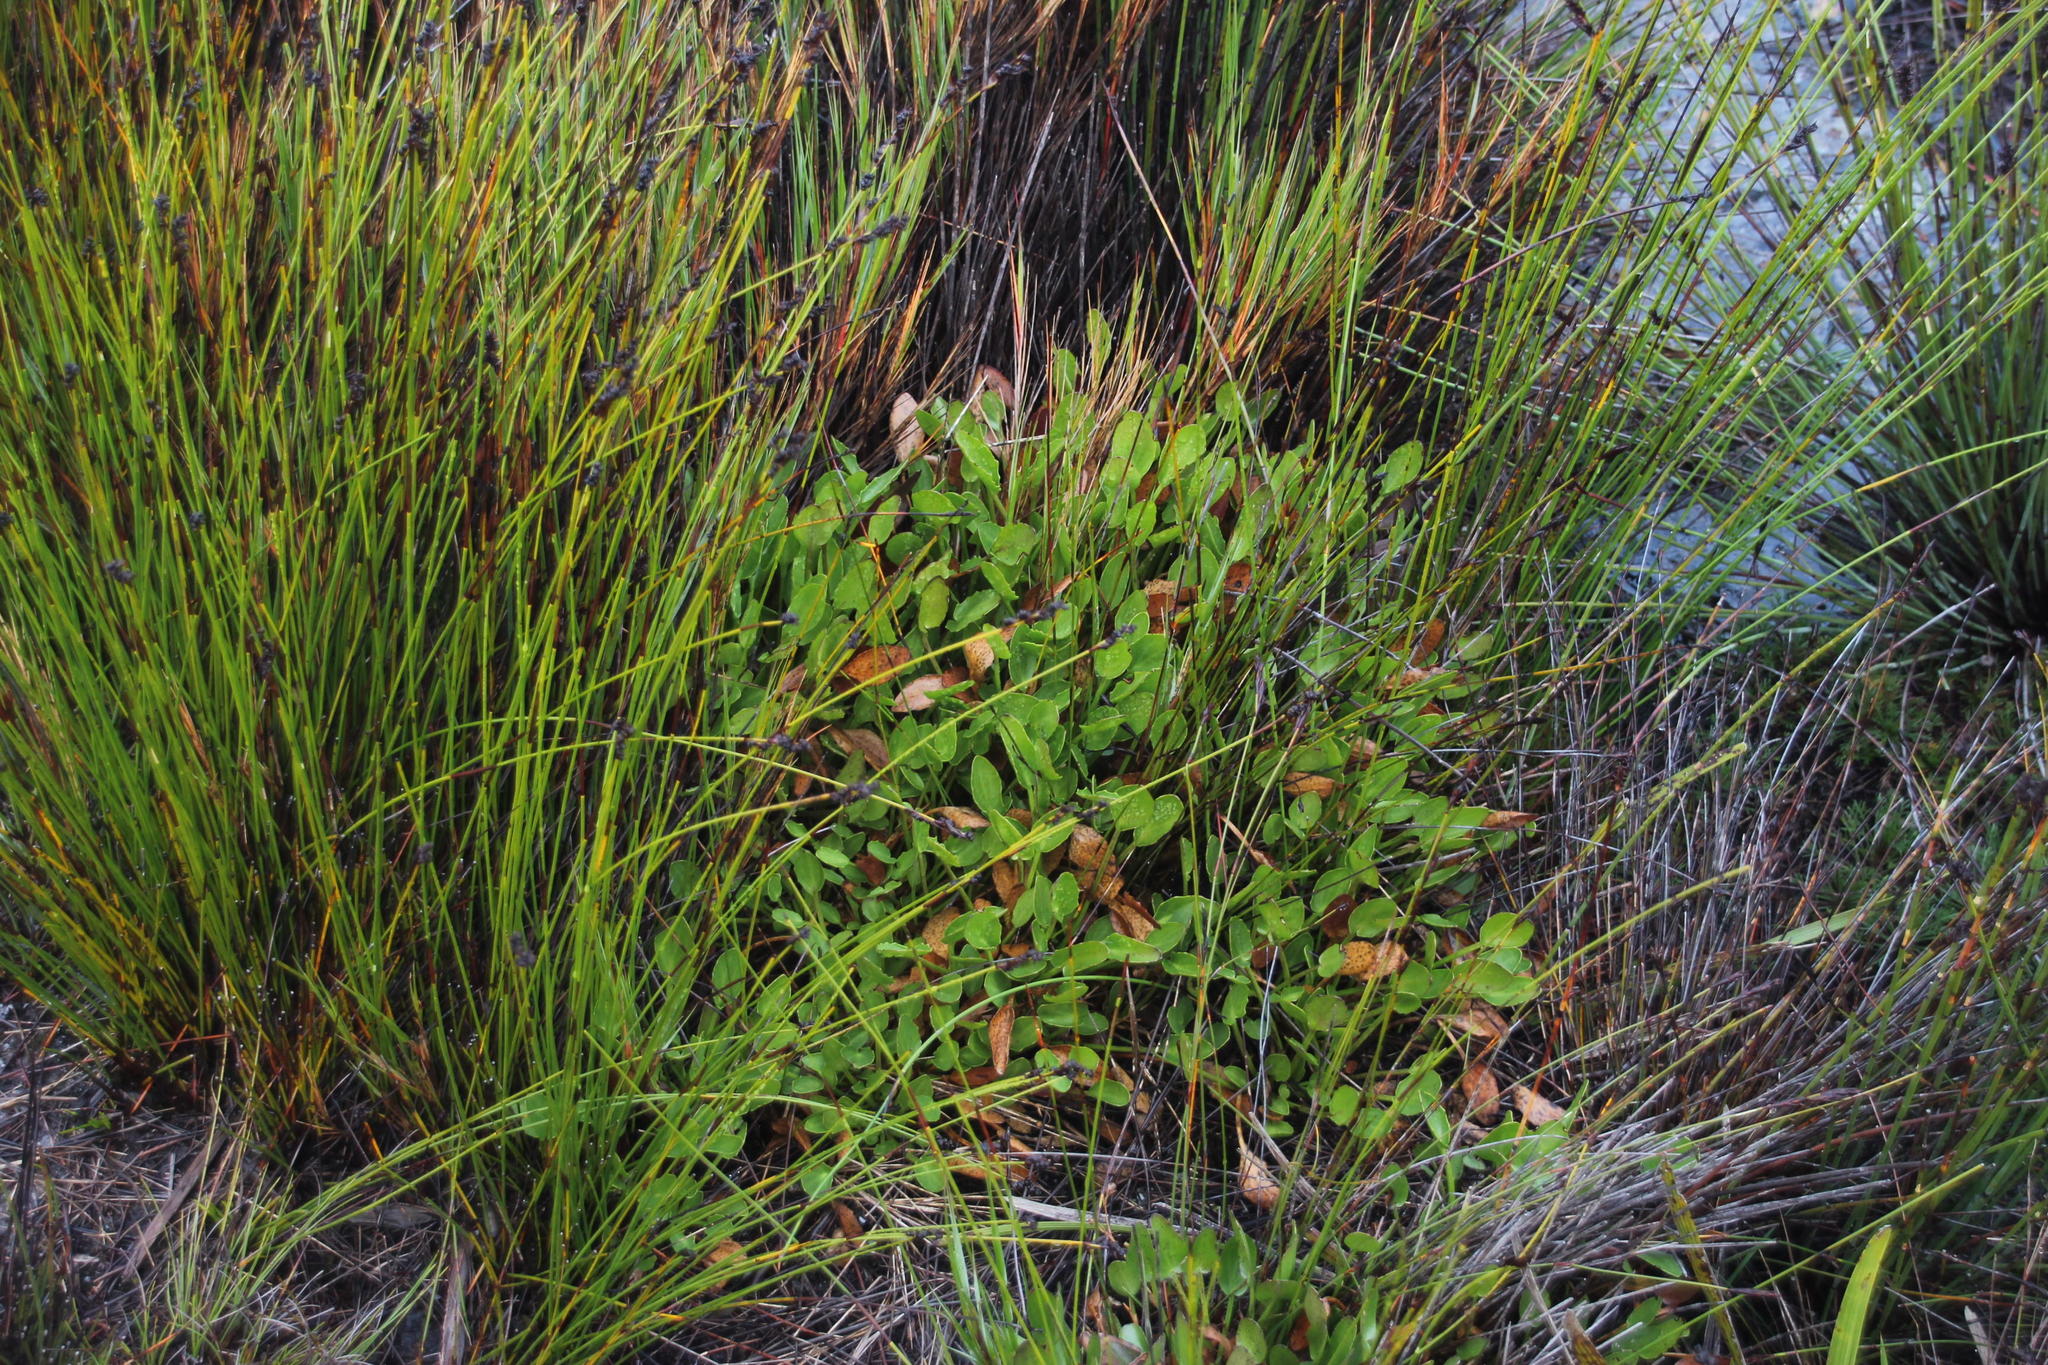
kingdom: Plantae
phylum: Tracheophyta
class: Magnoliopsida
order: Asterales
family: Menyanthaceae
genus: Villarsia
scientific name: Villarsia manningiana
